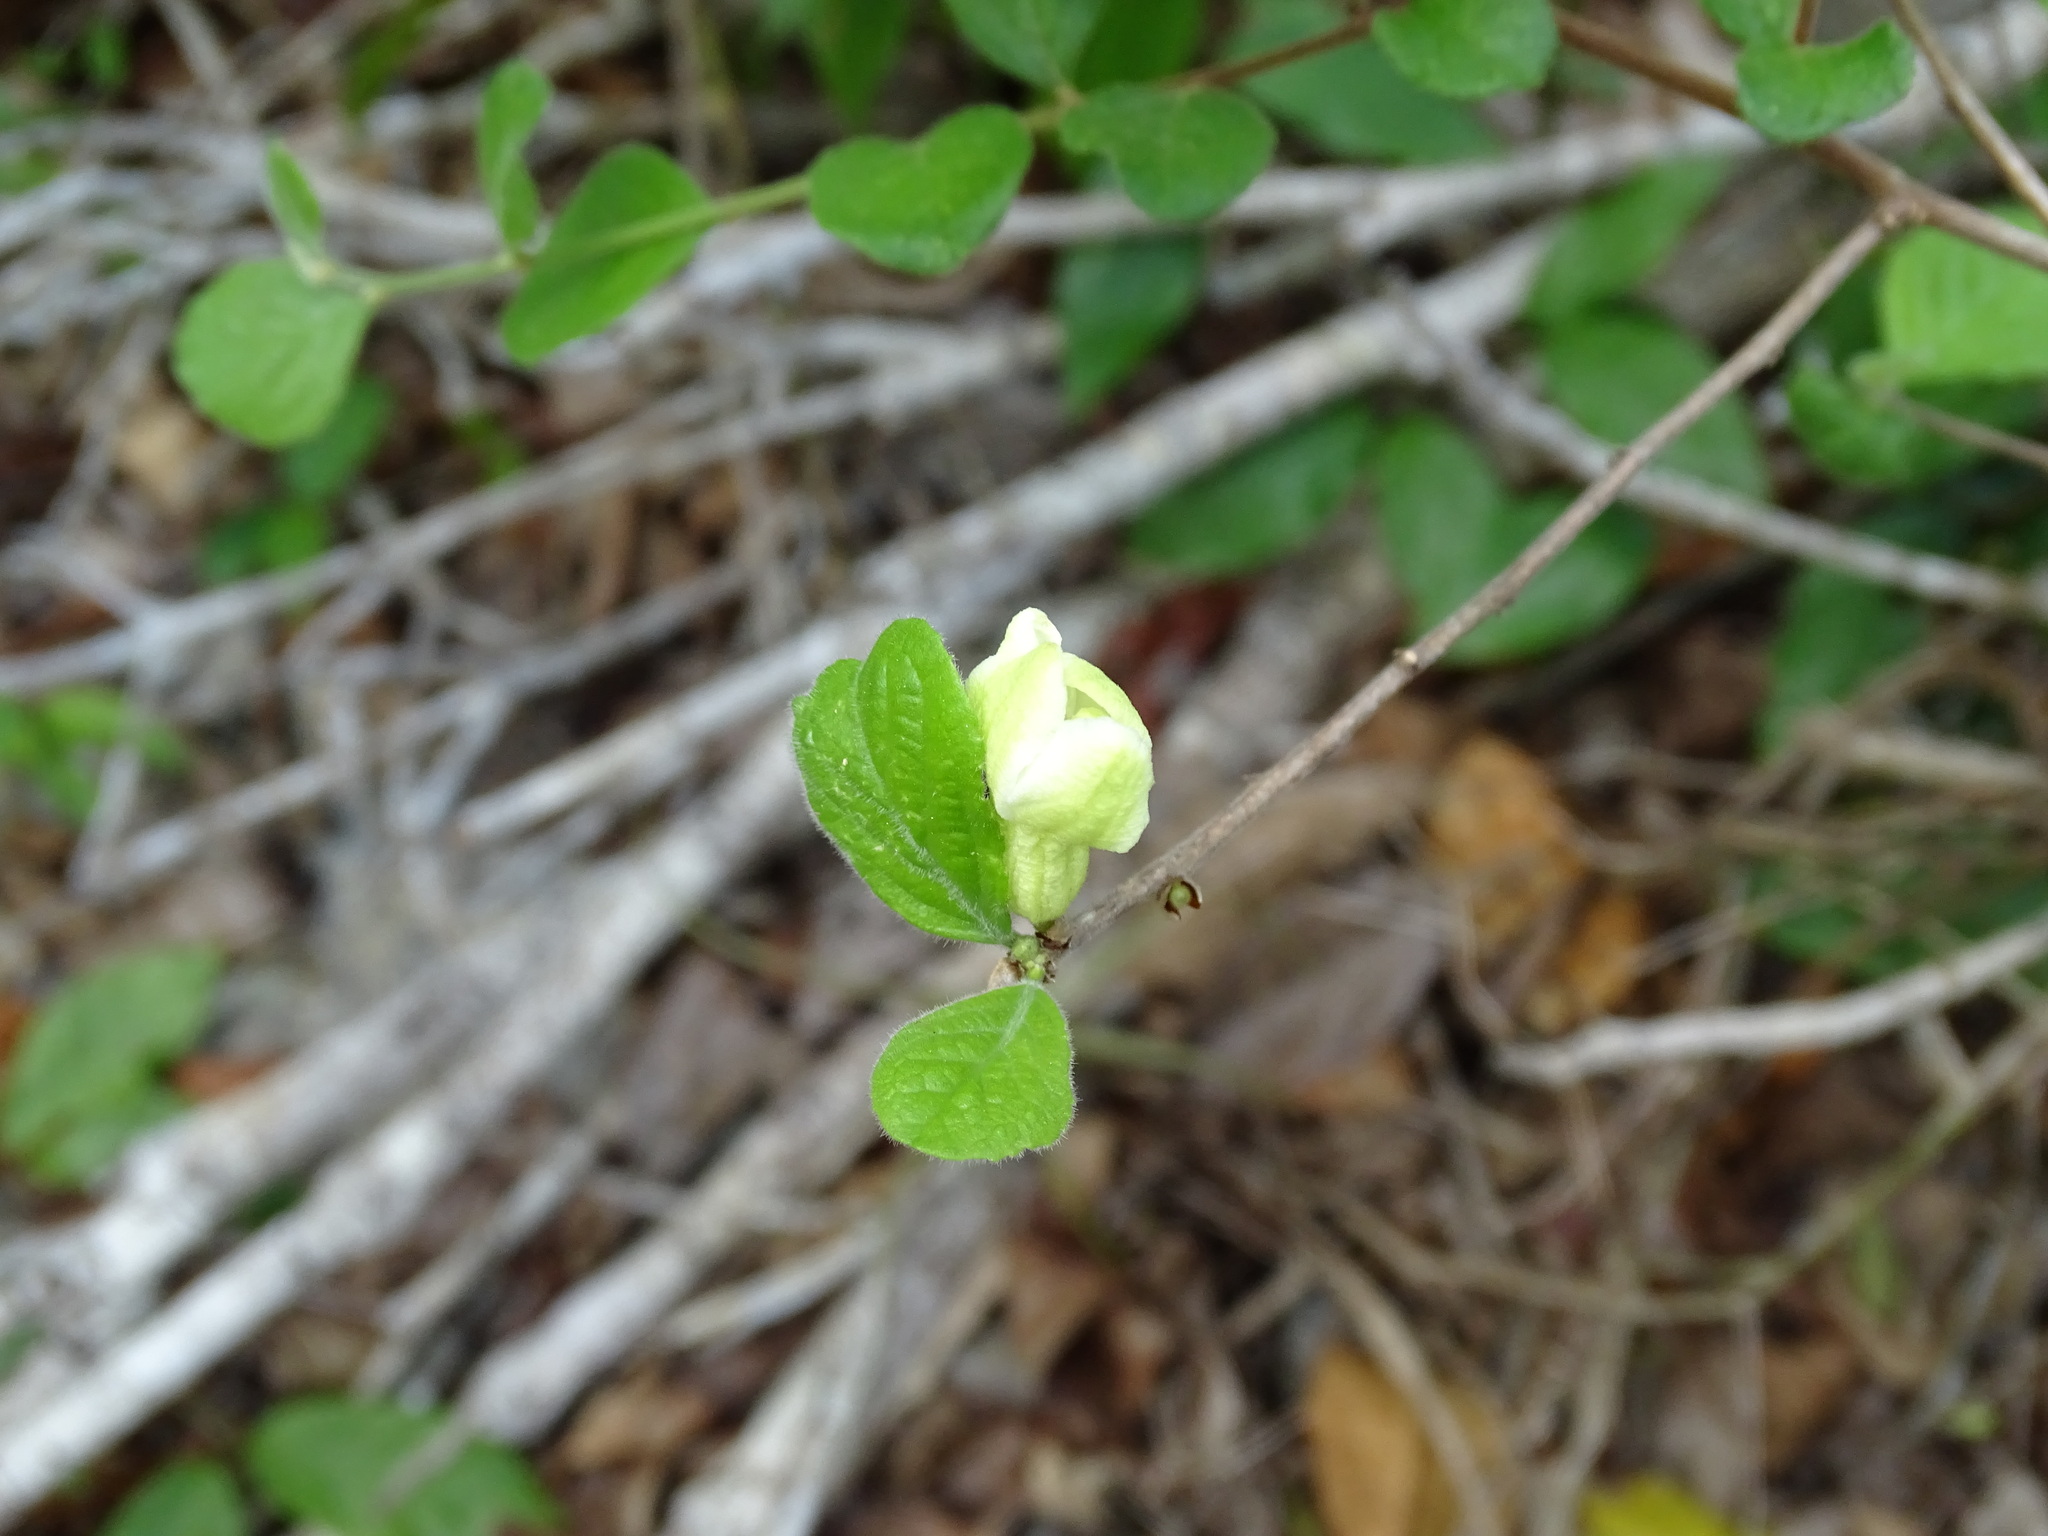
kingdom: Plantae
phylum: Tracheophyta
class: Magnoliopsida
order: Malpighiales
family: Salicaceae
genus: Casearia
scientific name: Casearia yucatanensis
